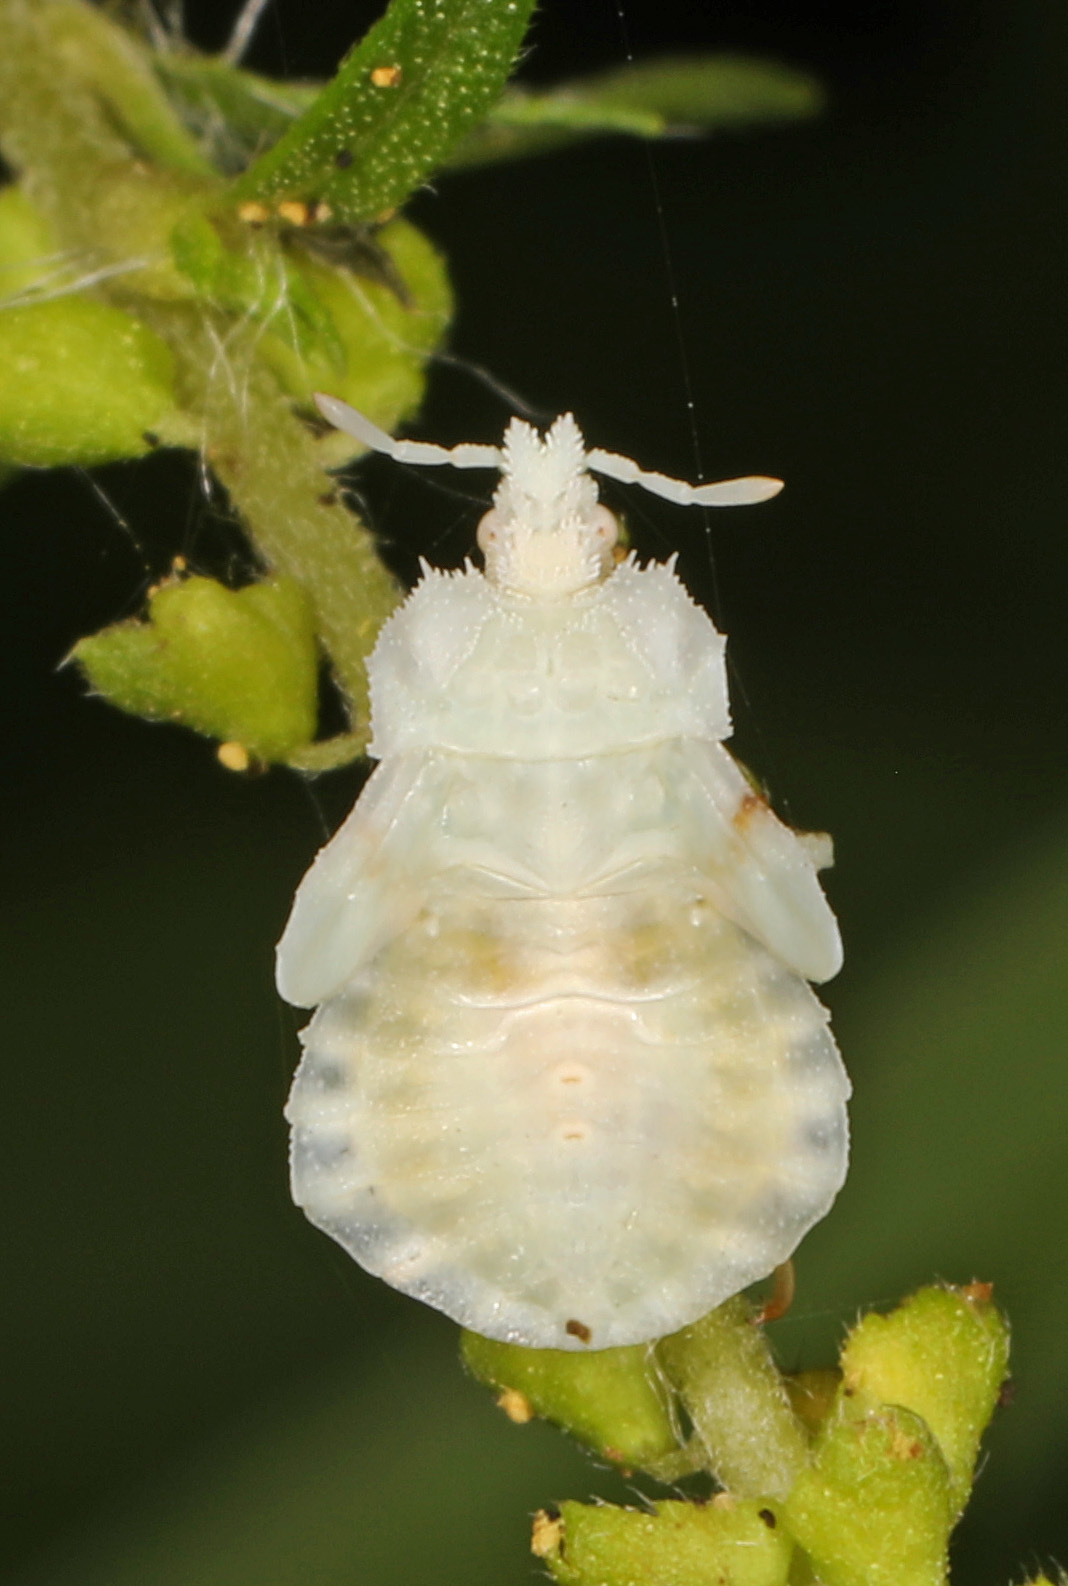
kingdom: Animalia
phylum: Arthropoda
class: Insecta
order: Hemiptera
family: Reduviidae
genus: Phymata
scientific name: Phymata fasciata
